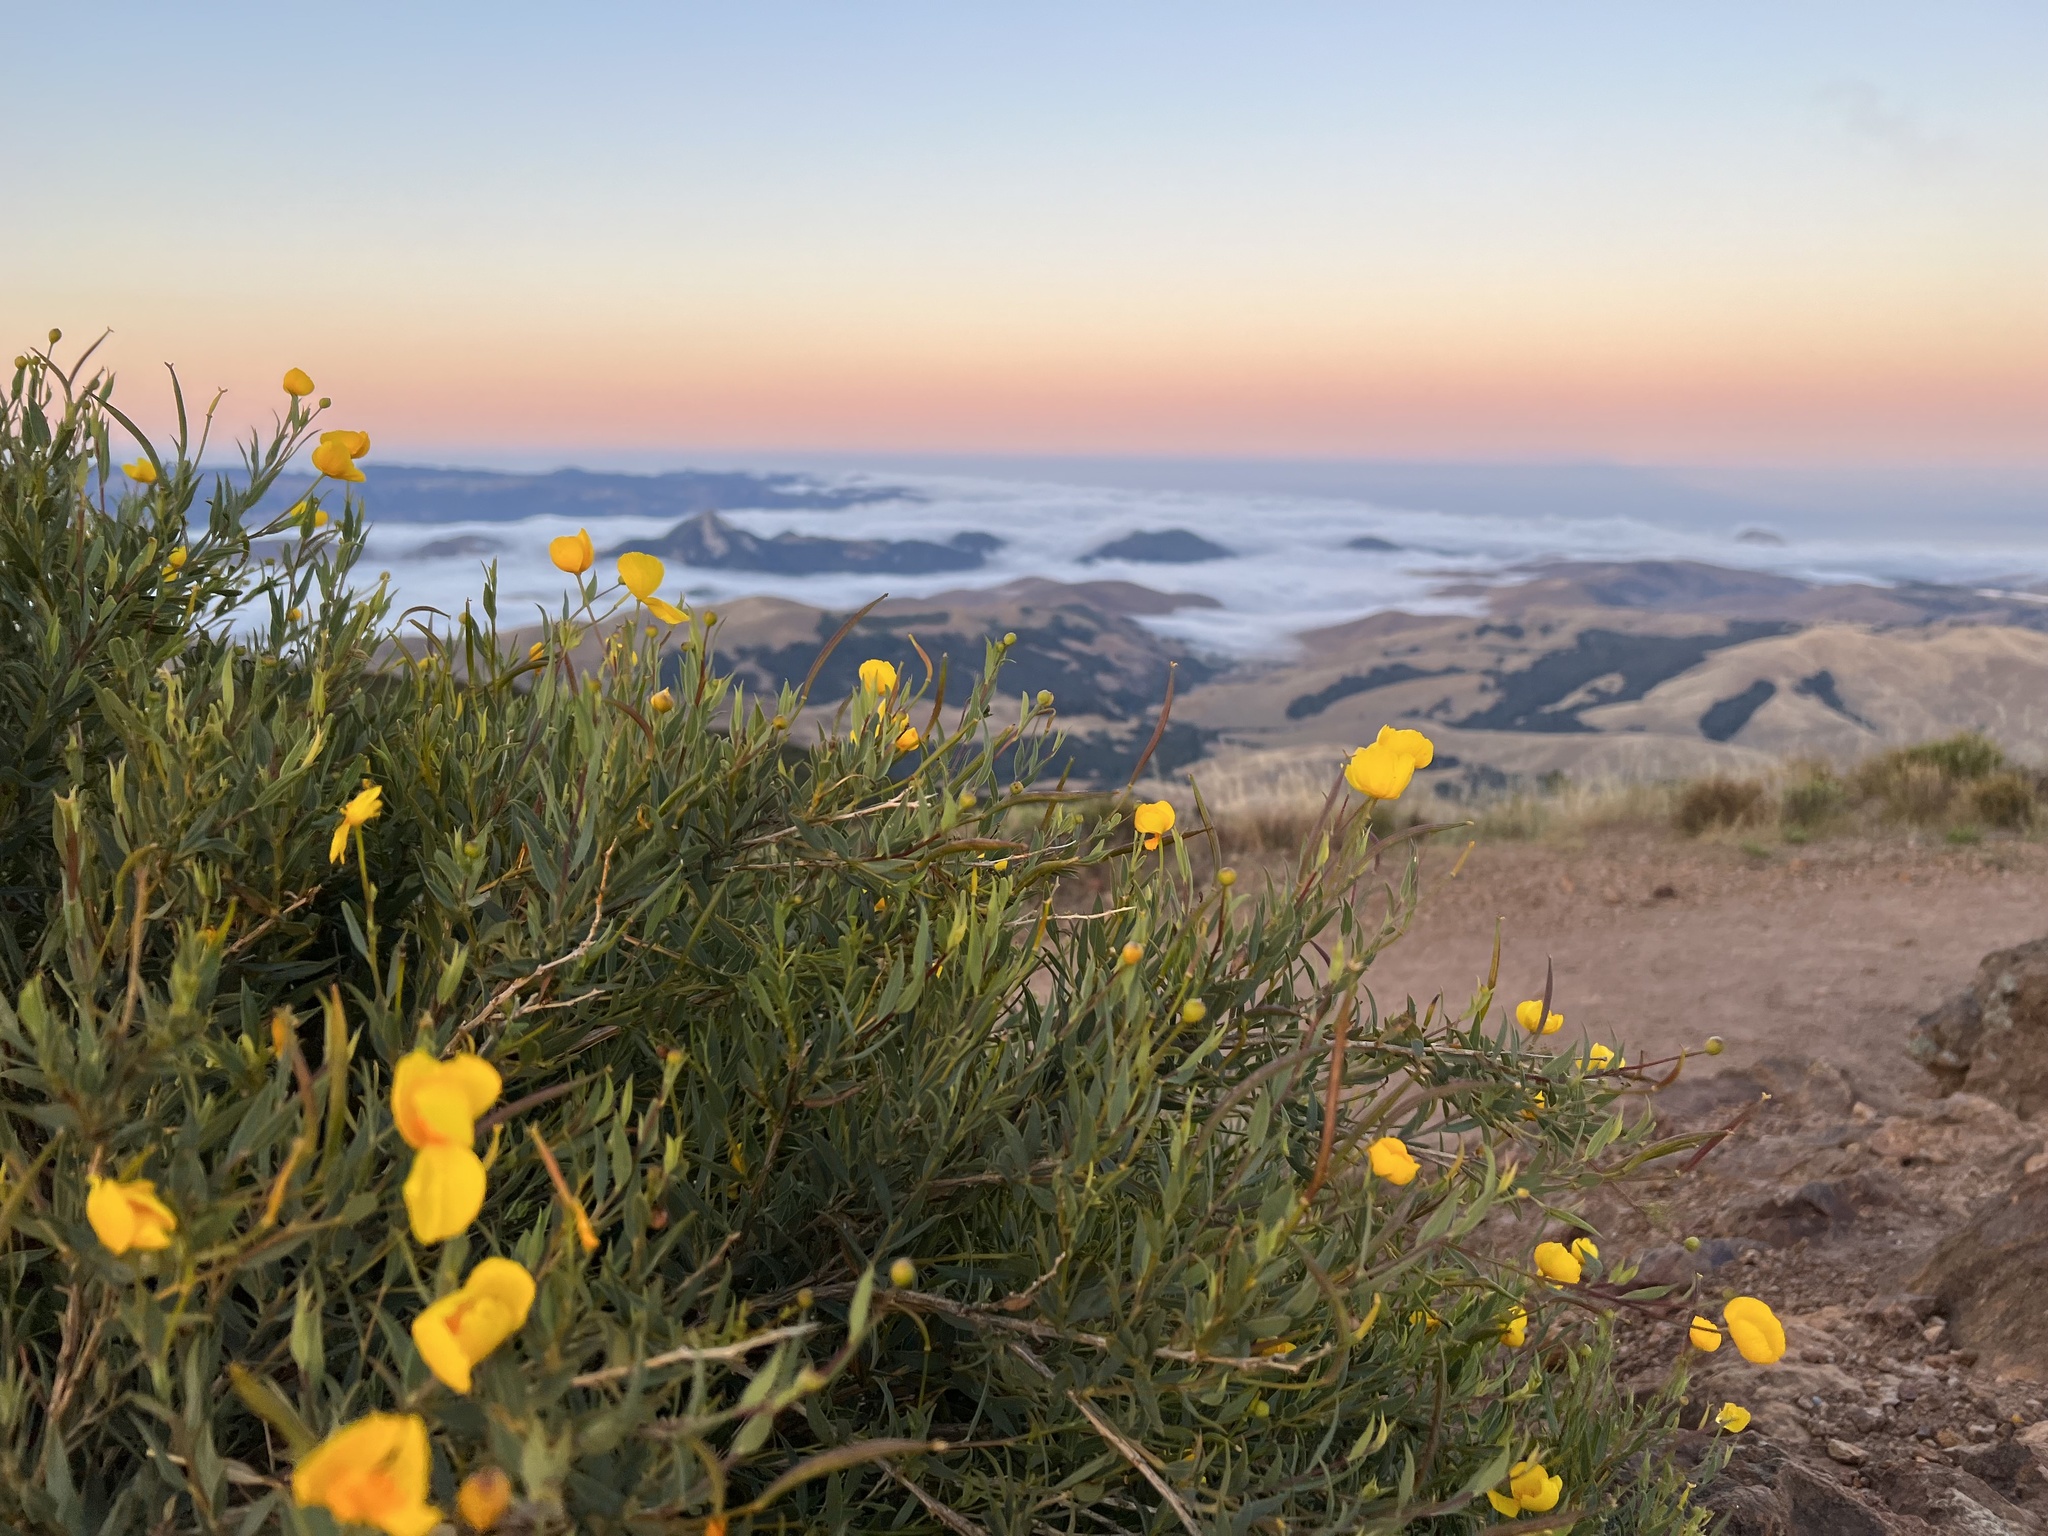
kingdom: Plantae
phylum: Tracheophyta
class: Magnoliopsida
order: Ranunculales
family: Papaveraceae
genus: Dendromecon
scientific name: Dendromecon rigida
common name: Tree poppy
